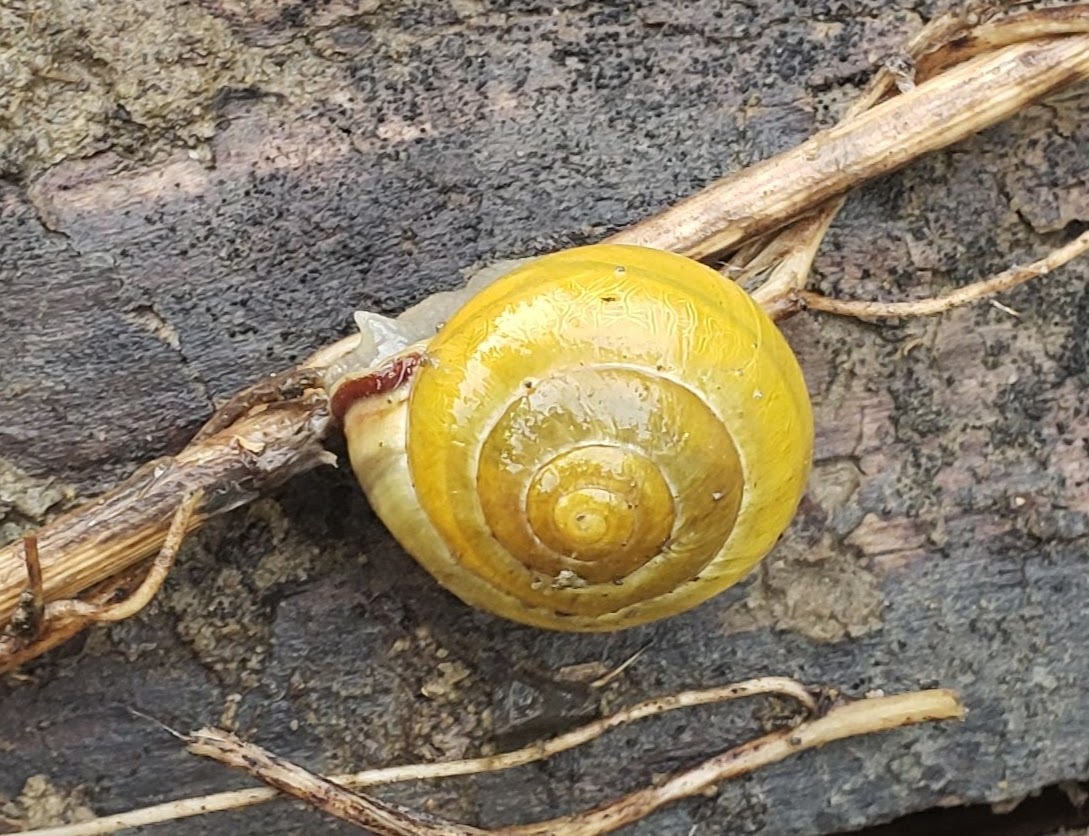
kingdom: Animalia
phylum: Mollusca
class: Gastropoda
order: Stylommatophora
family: Helicidae
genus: Cepaea
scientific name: Cepaea nemoralis
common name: Grovesnail
